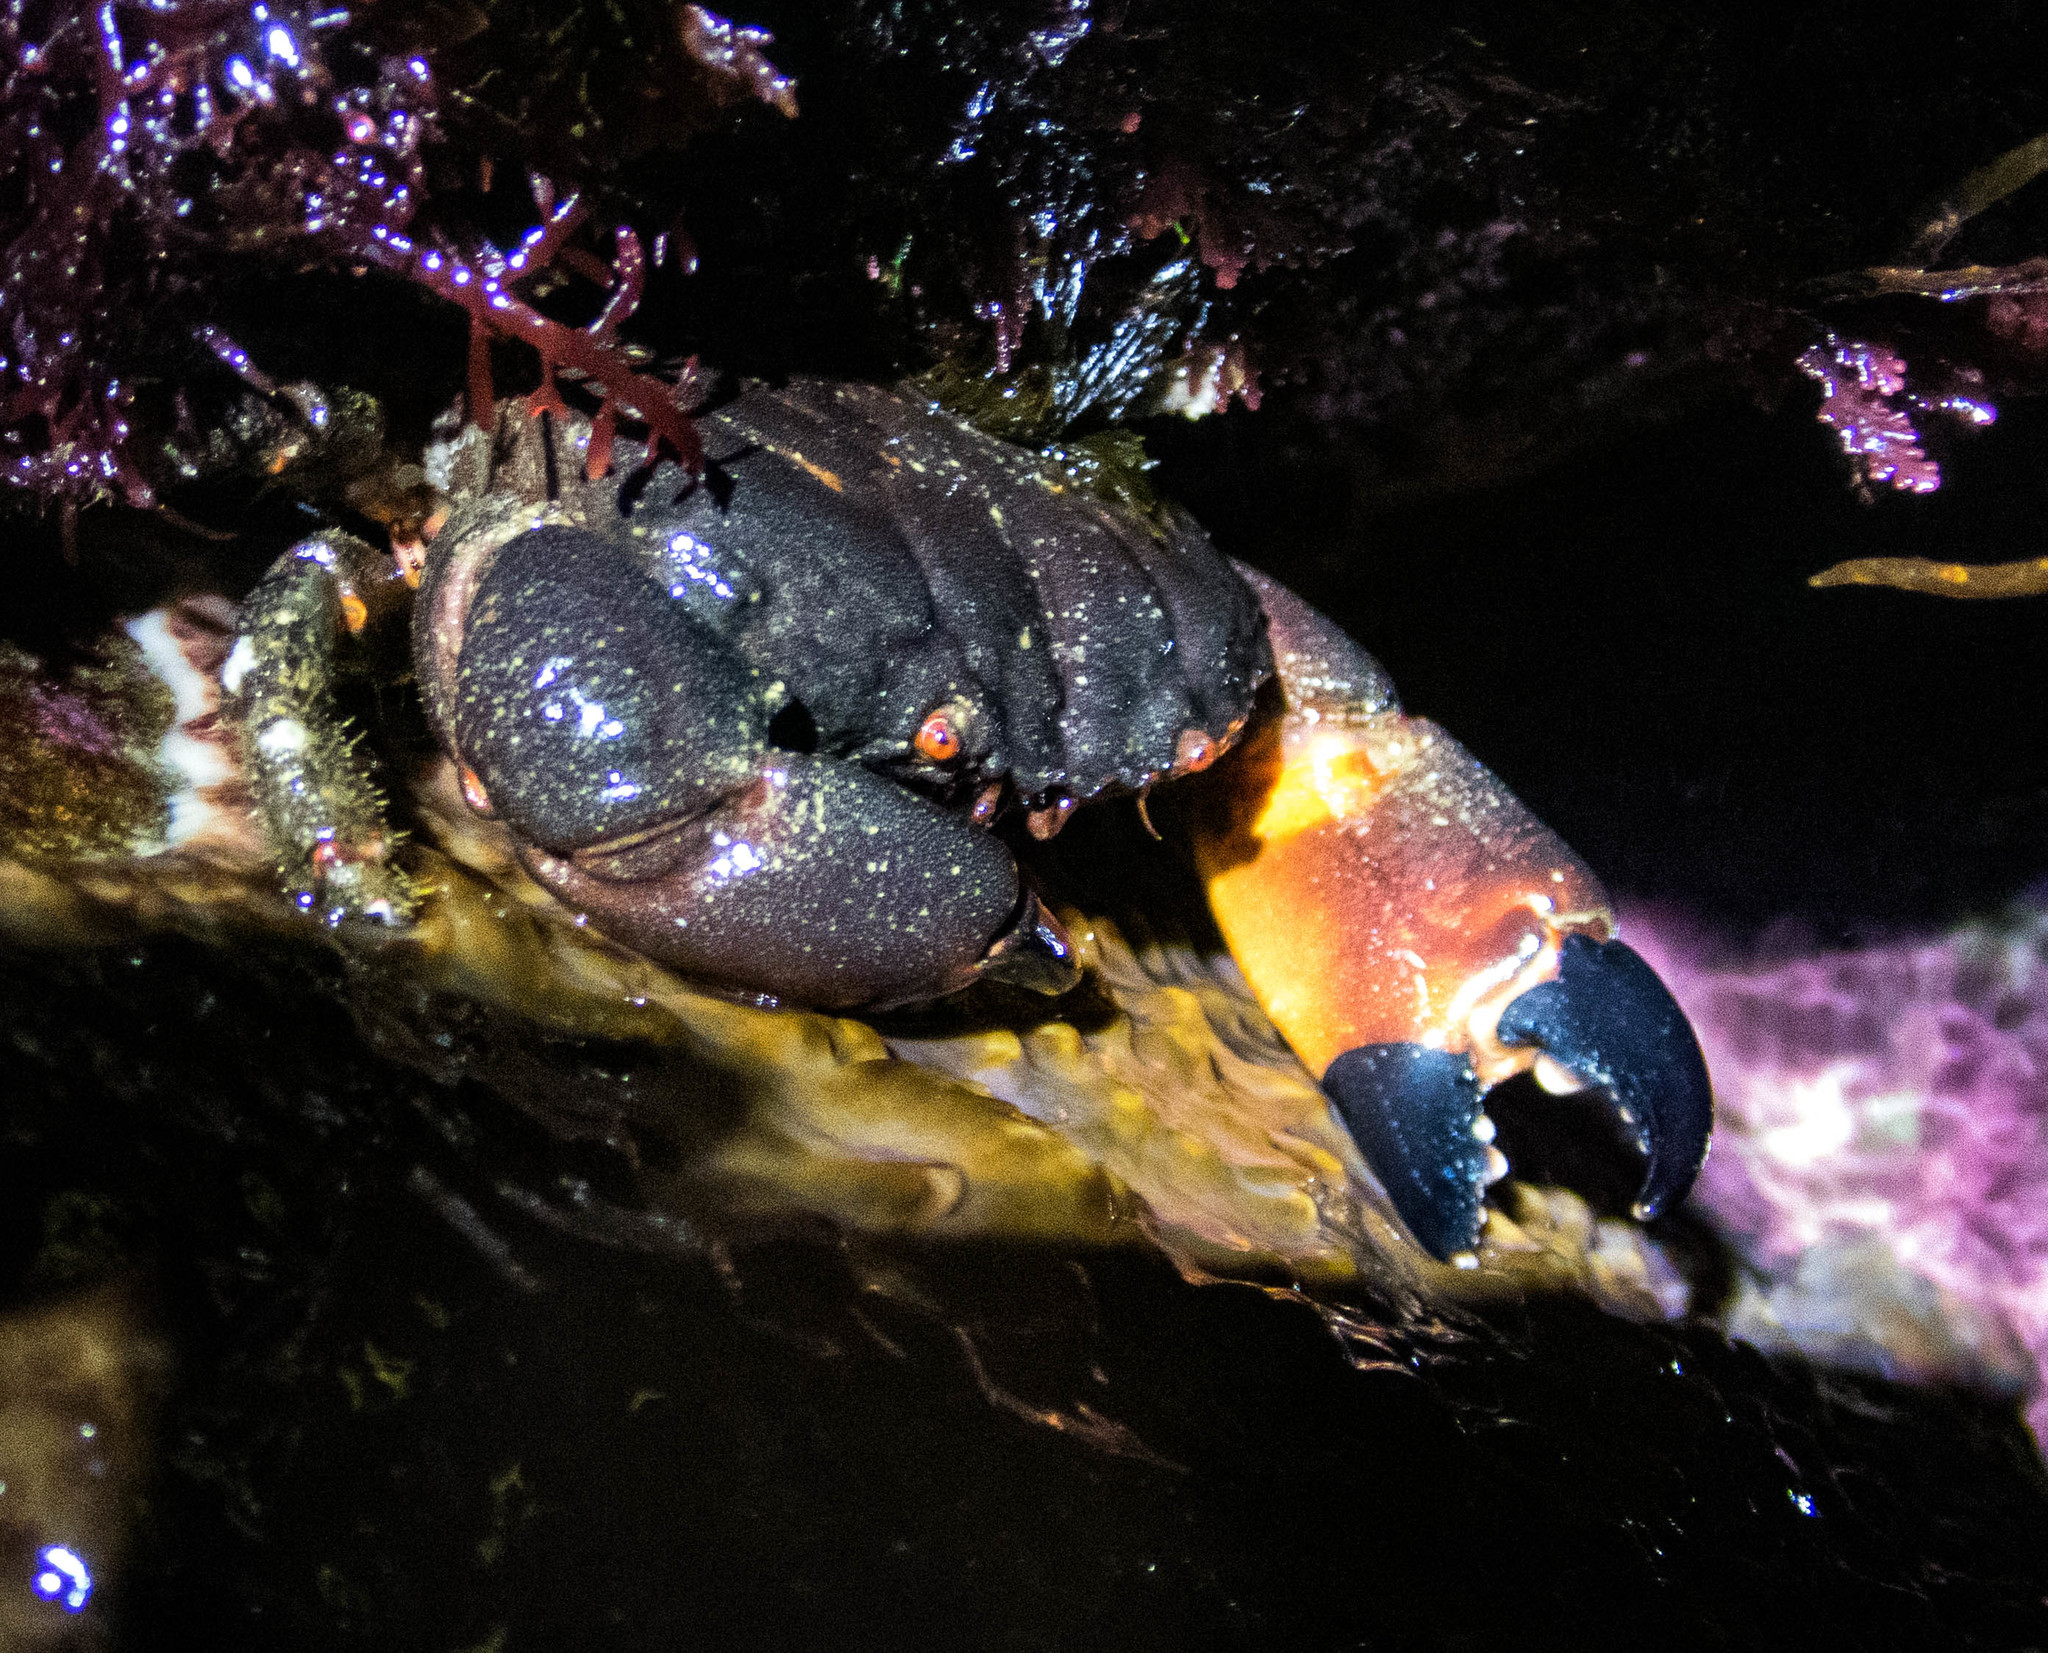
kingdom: Animalia
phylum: Arthropoda
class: Malacostraca
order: Decapoda
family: Oziidae
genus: Ozius
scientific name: Ozius truncatus
